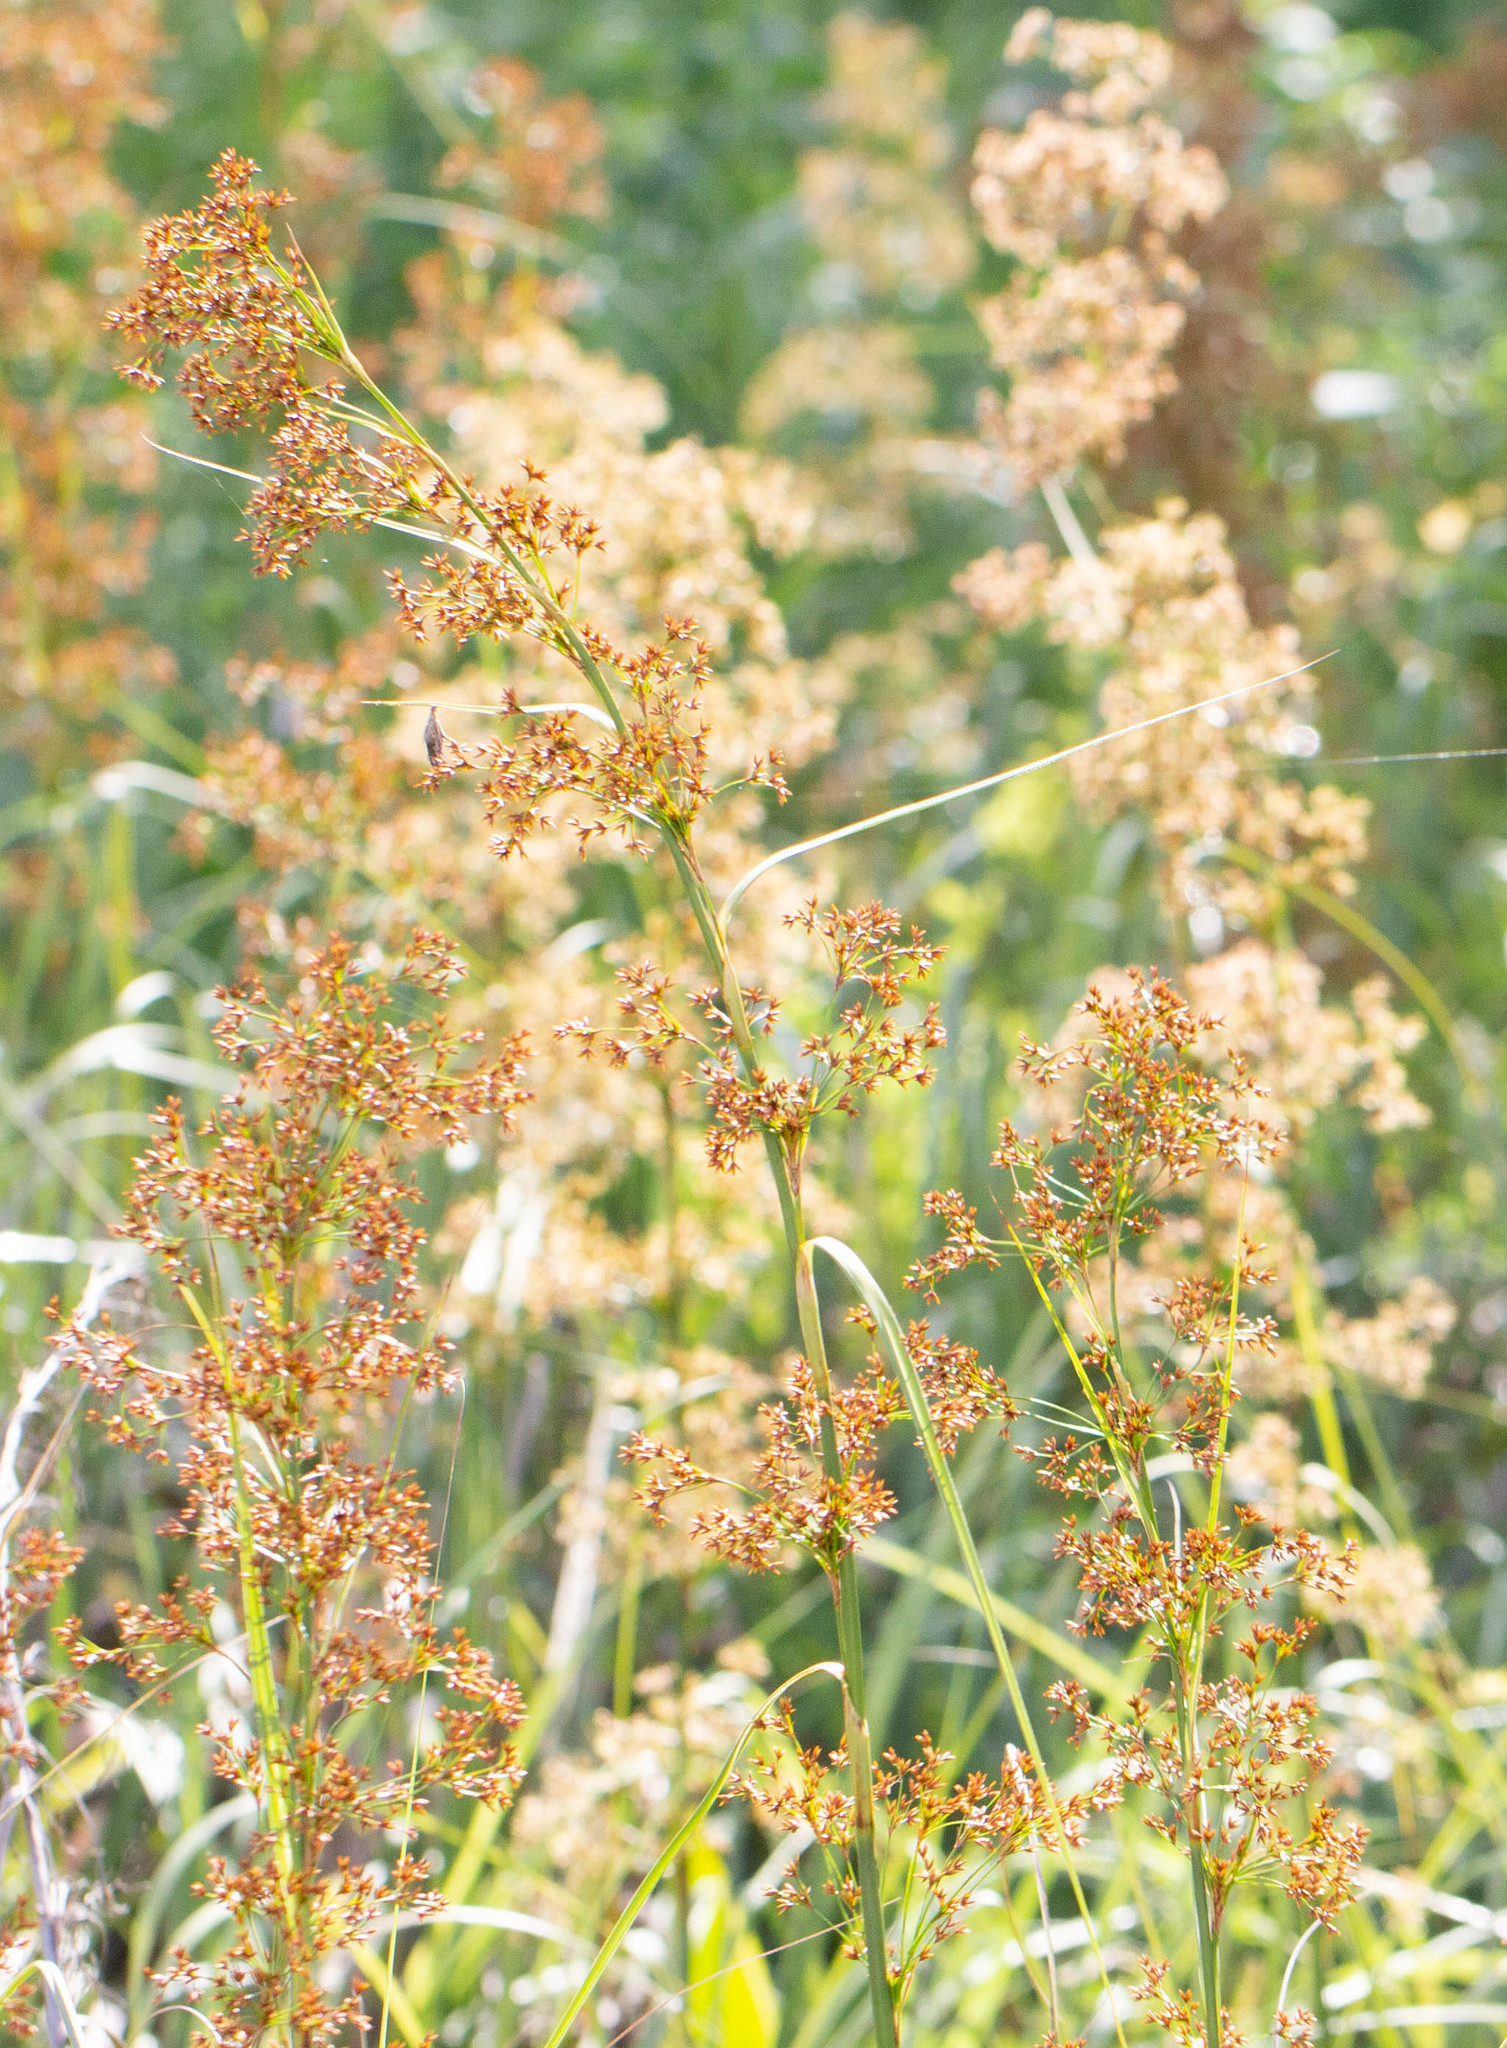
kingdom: Plantae
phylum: Tracheophyta
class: Liliopsida
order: Poales
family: Cyperaceae
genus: Cladium
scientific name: Cladium mariscus
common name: Great fen-sedge
